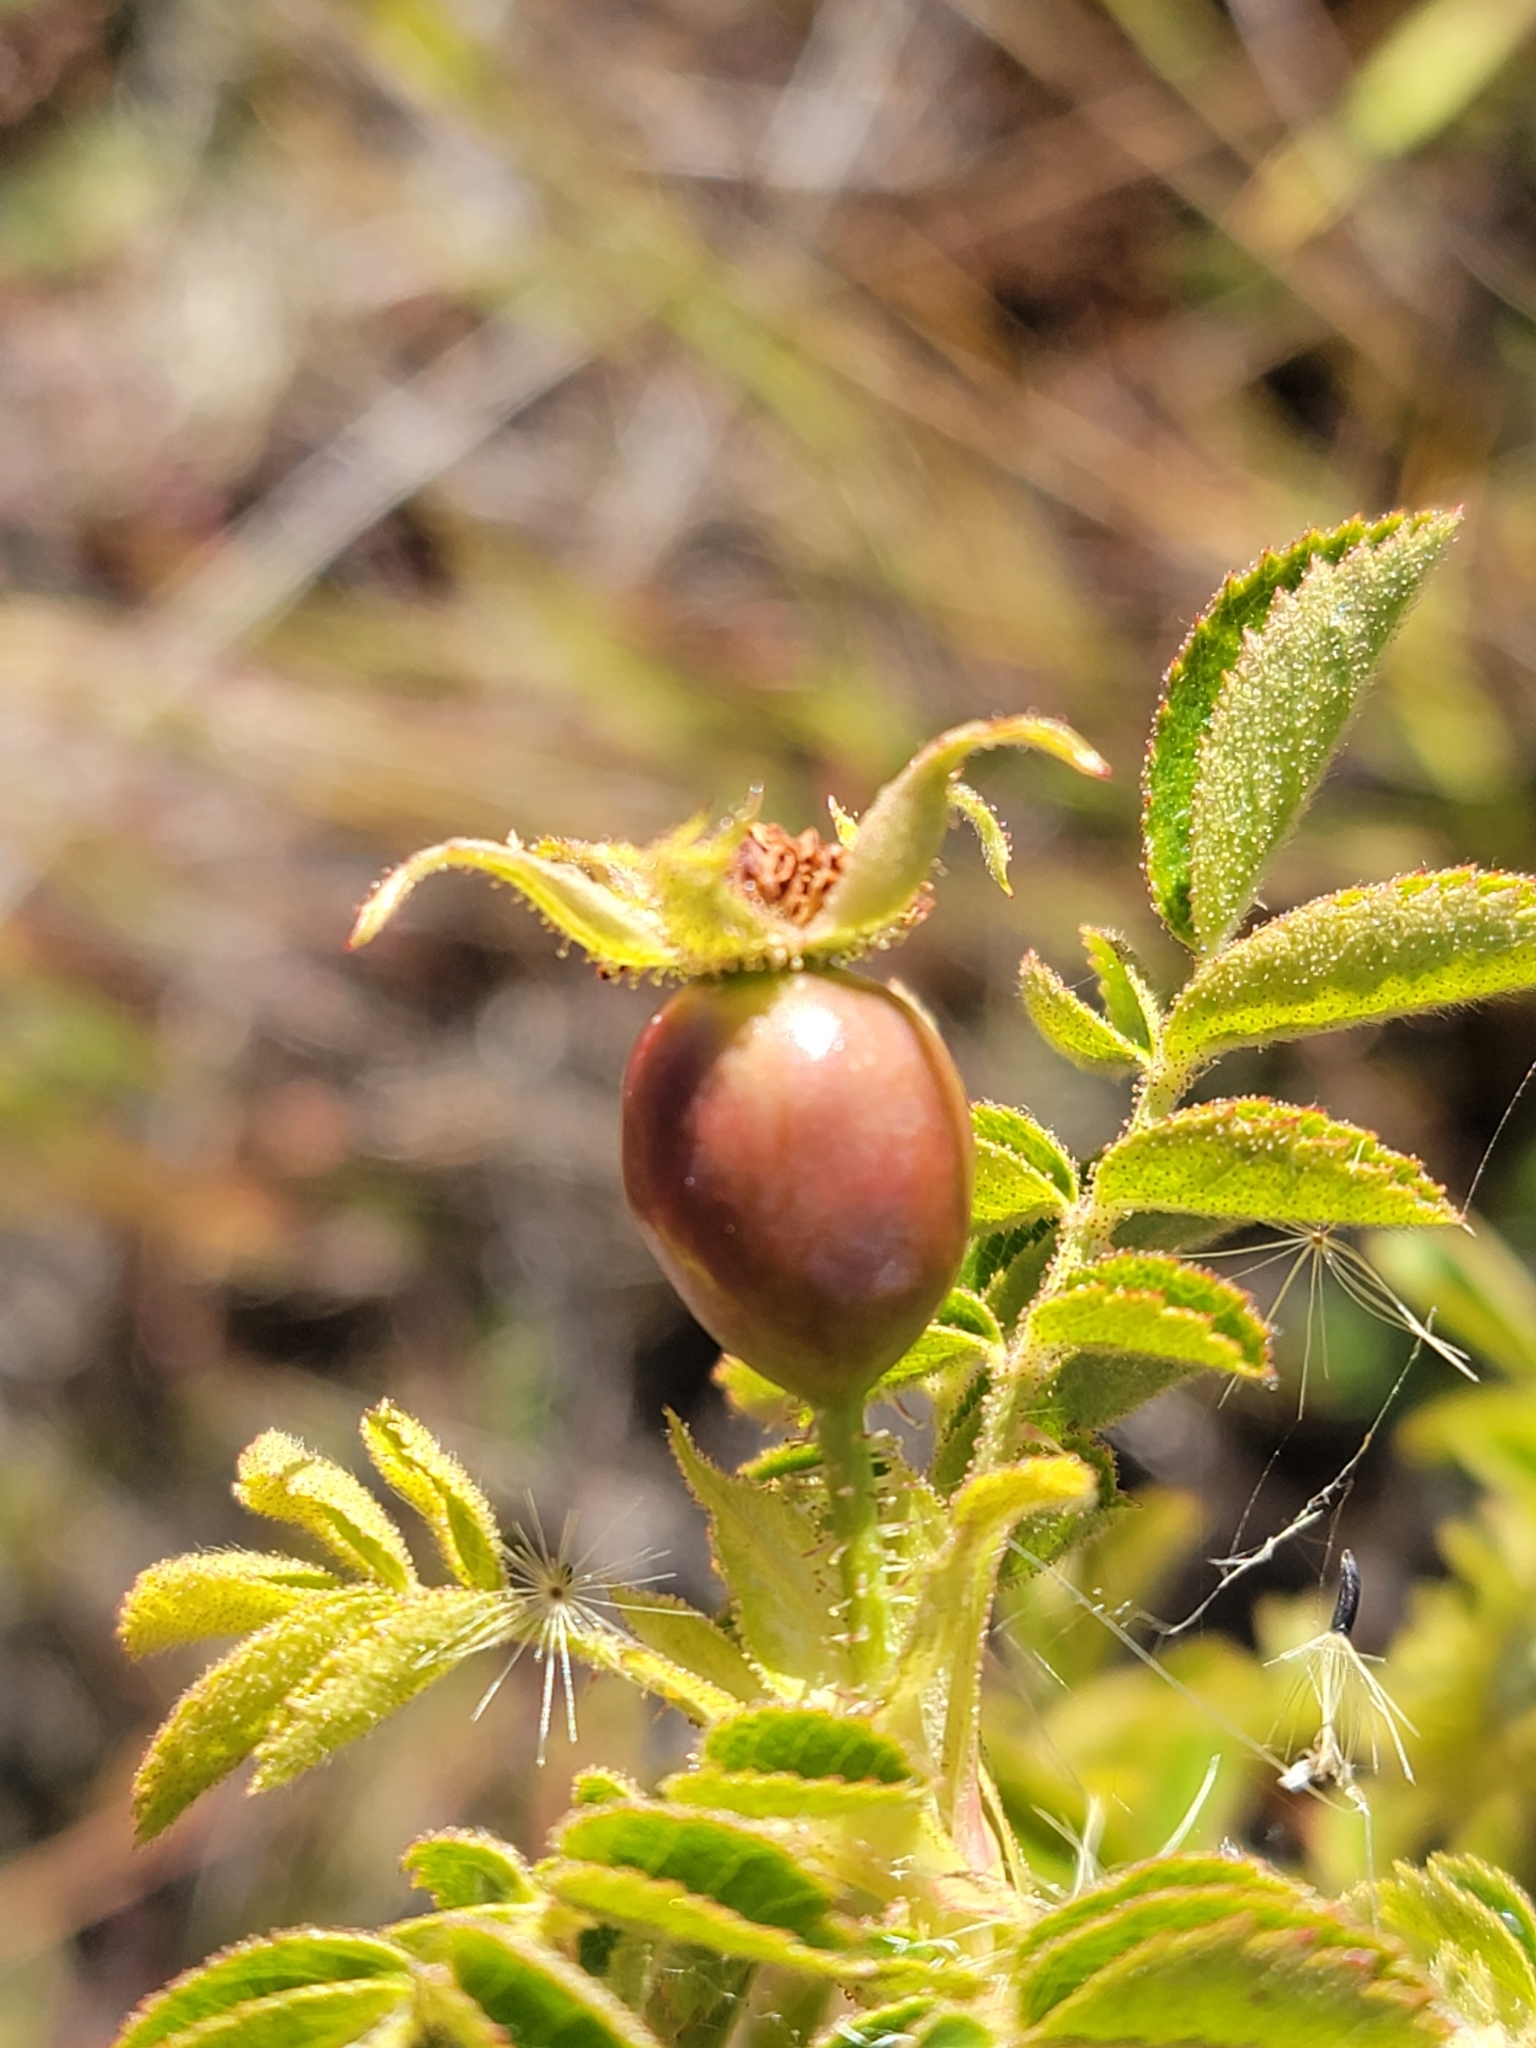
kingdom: Plantae
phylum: Tracheophyta
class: Magnoliopsida
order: Rosales
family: Rosaceae
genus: Rosa
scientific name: Rosa rubiginosa
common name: Sweet-briar
